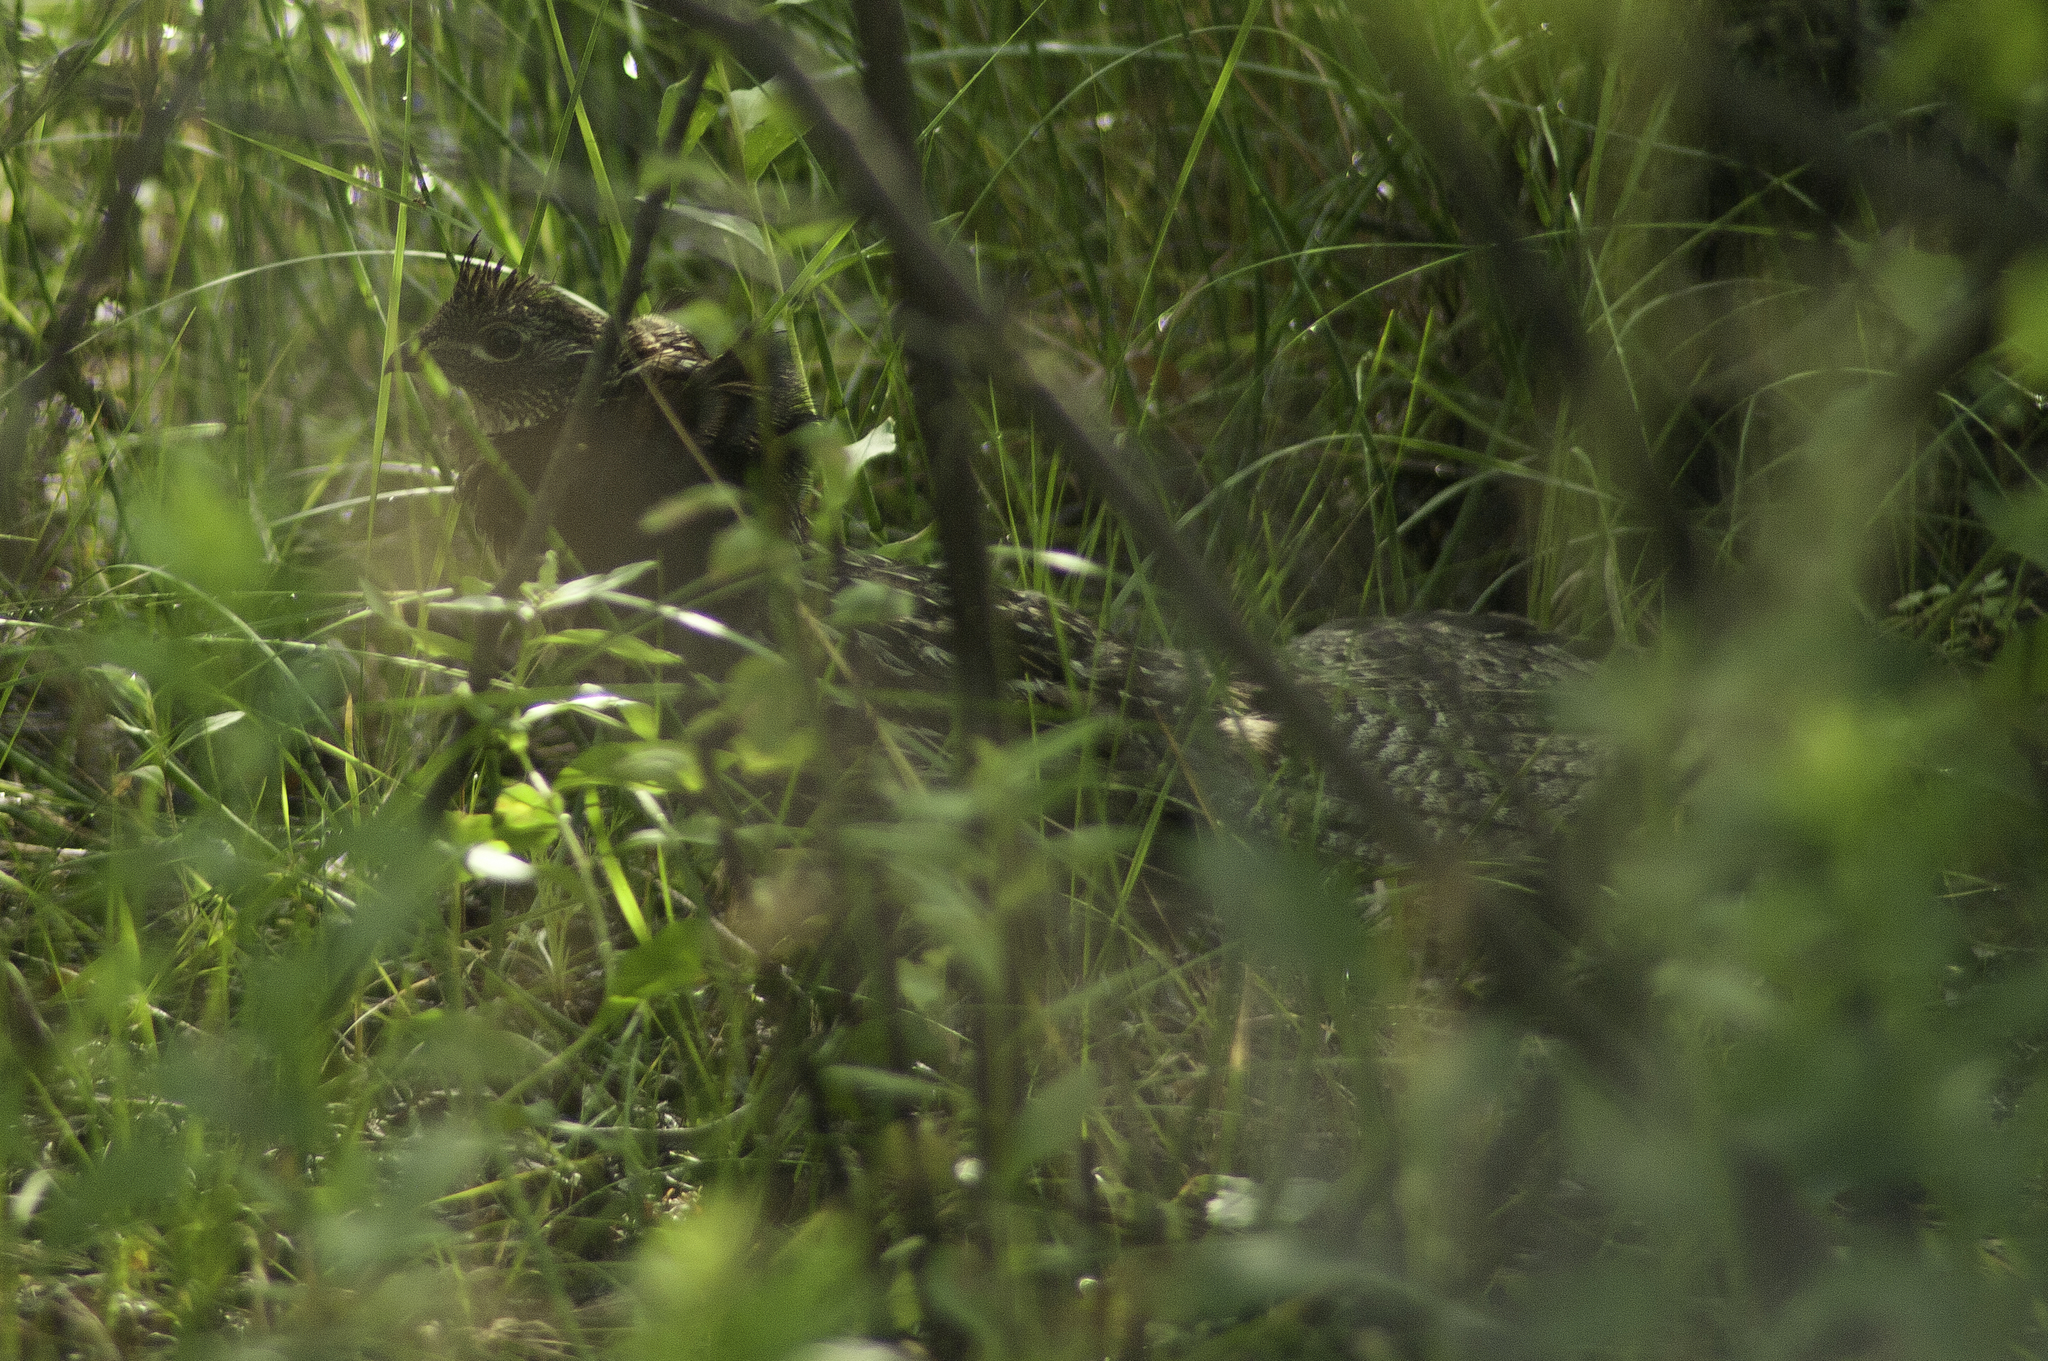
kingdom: Animalia
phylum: Chordata
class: Aves
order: Galliformes
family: Phasianidae
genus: Bonasa
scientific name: Bonasa umbellus
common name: Ruffed grouse
